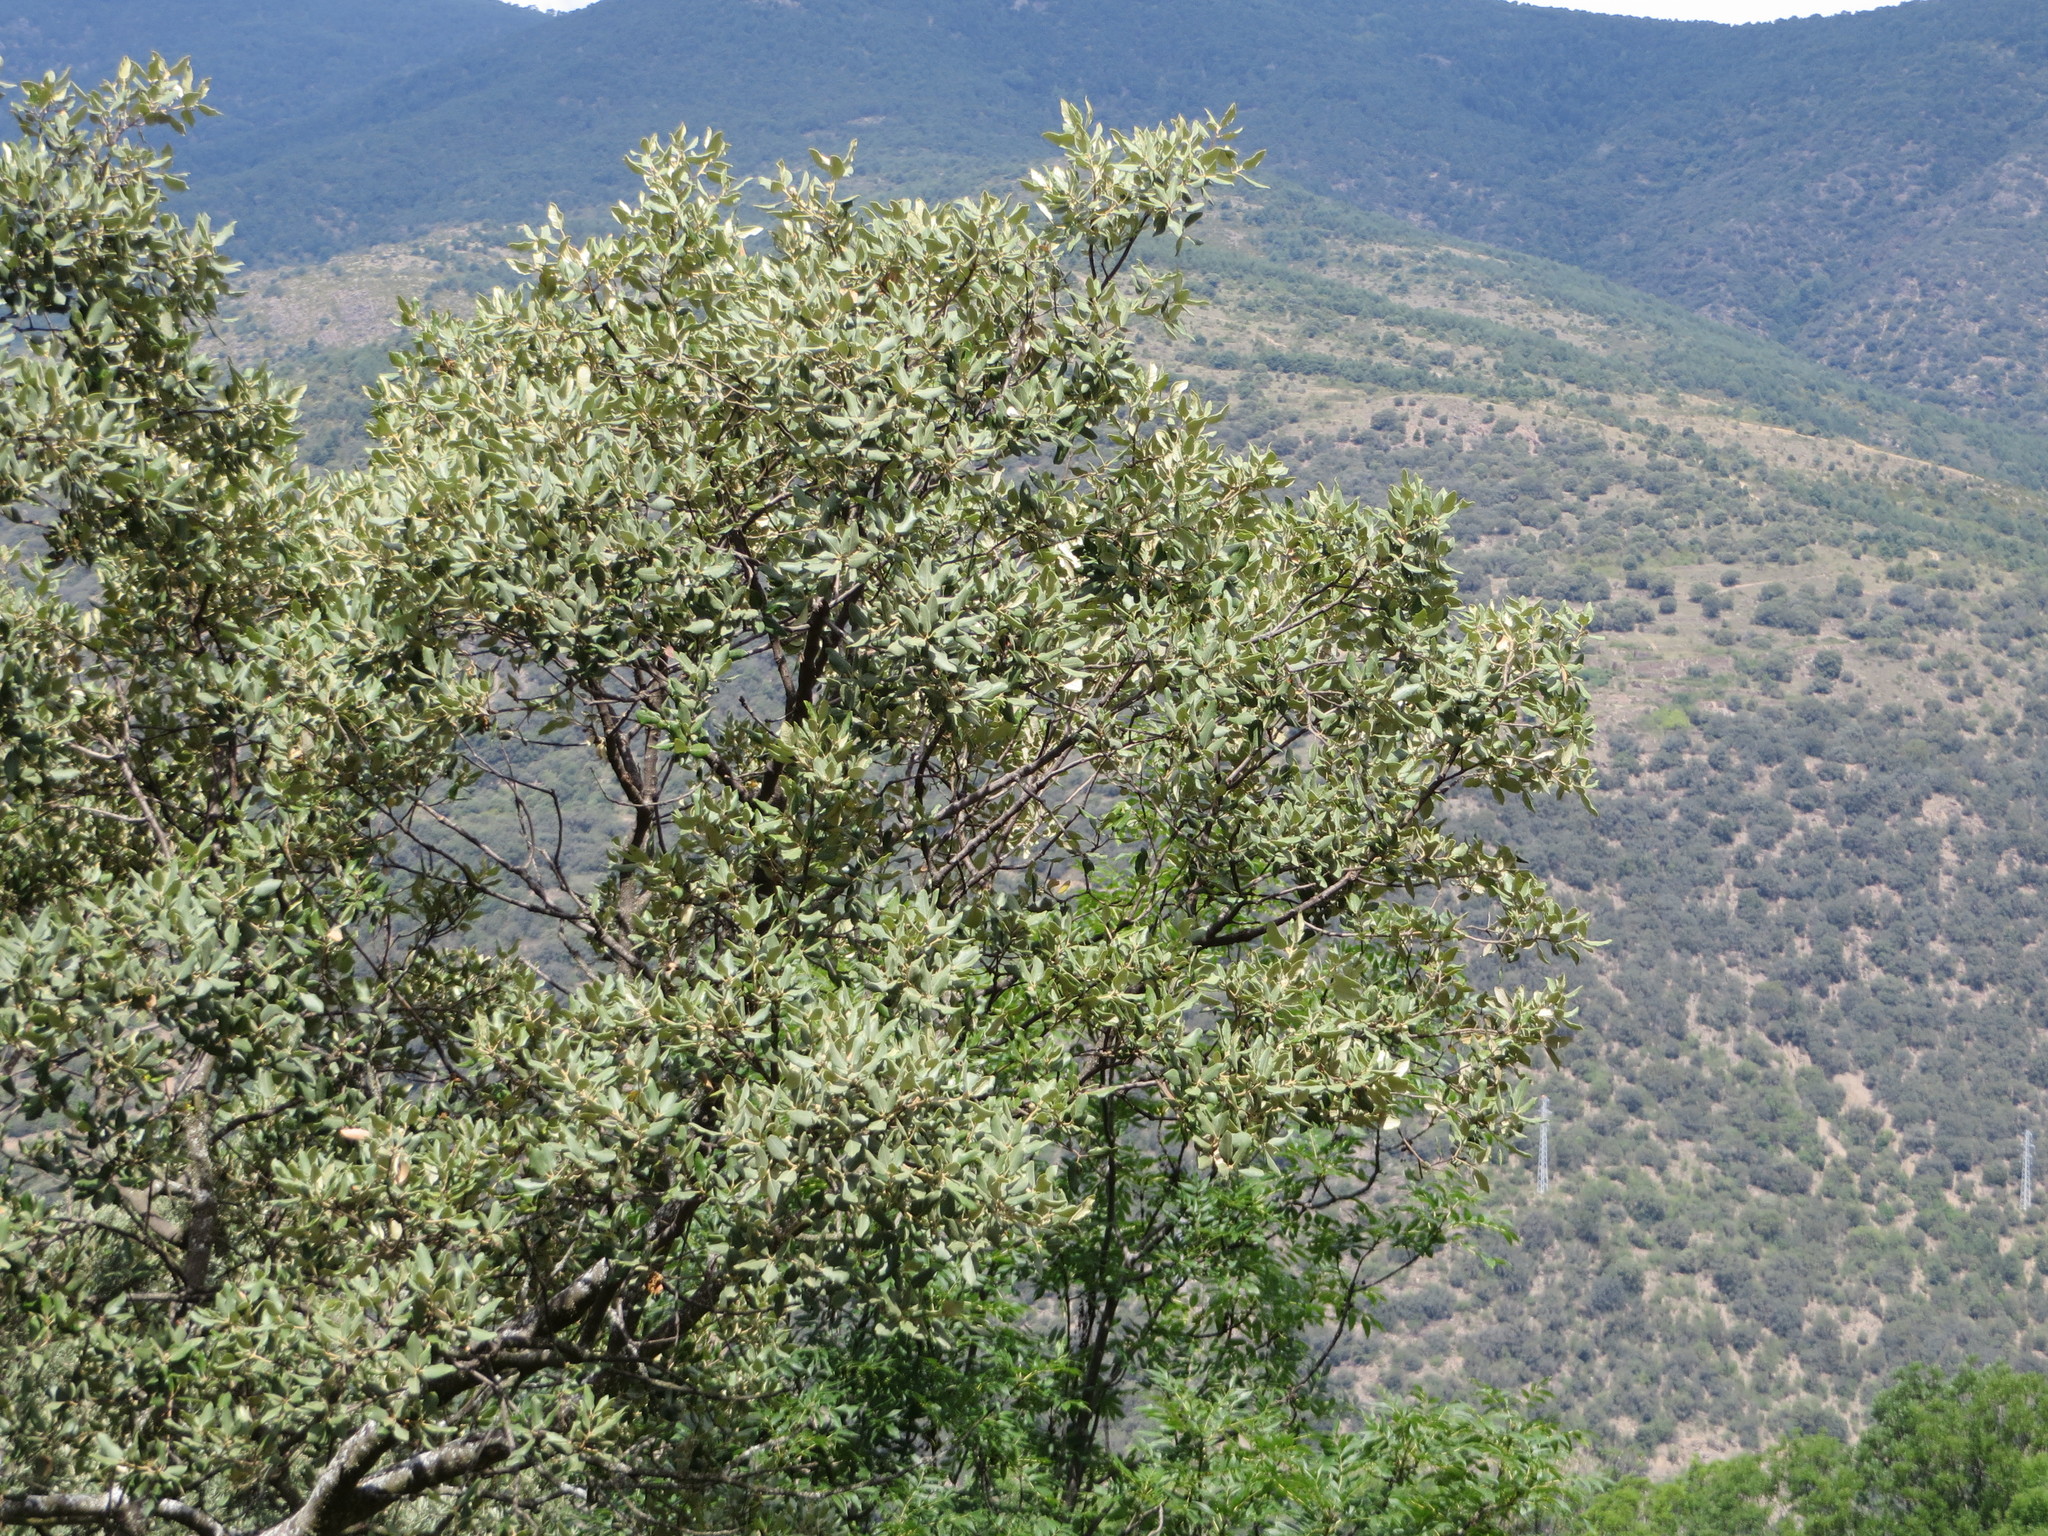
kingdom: Plantae
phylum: Tracheophyta
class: Magnoliopsida
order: Fagales
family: Fagaceae
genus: Quercus
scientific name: Quercus ilex
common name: Evergreen oak
